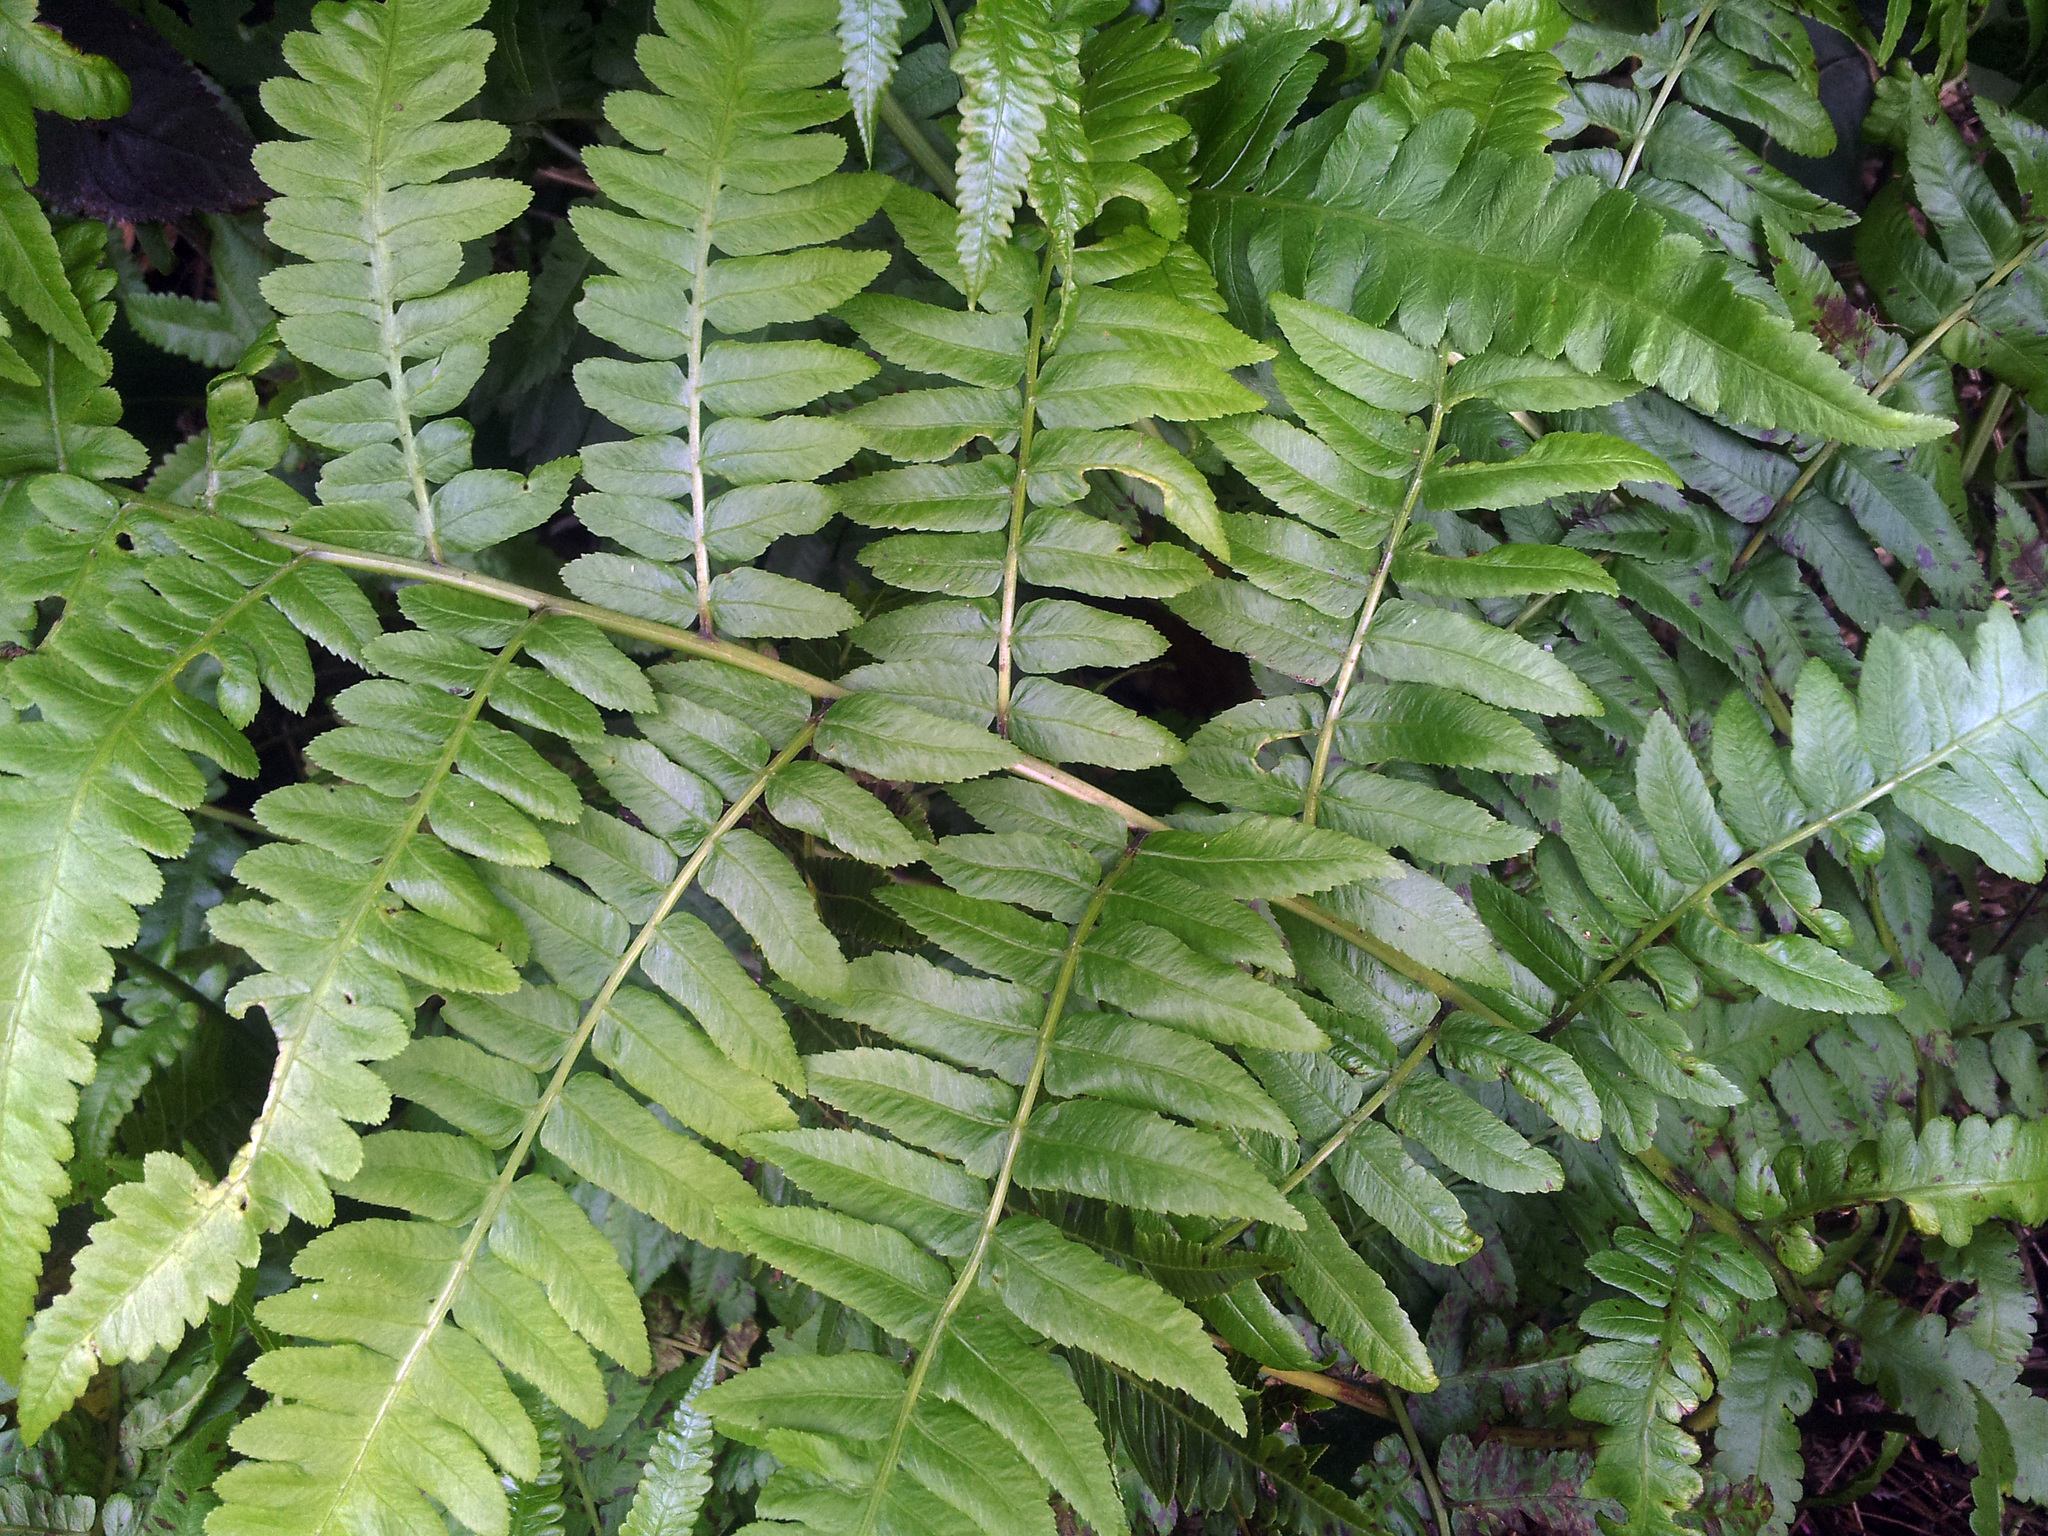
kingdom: Plantae
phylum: Tracheophyta
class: Polypodiopsida
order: Polypodiales
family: Athyriaceae
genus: Diplazium
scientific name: Diplazium esculentum
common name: Vegetable fern
